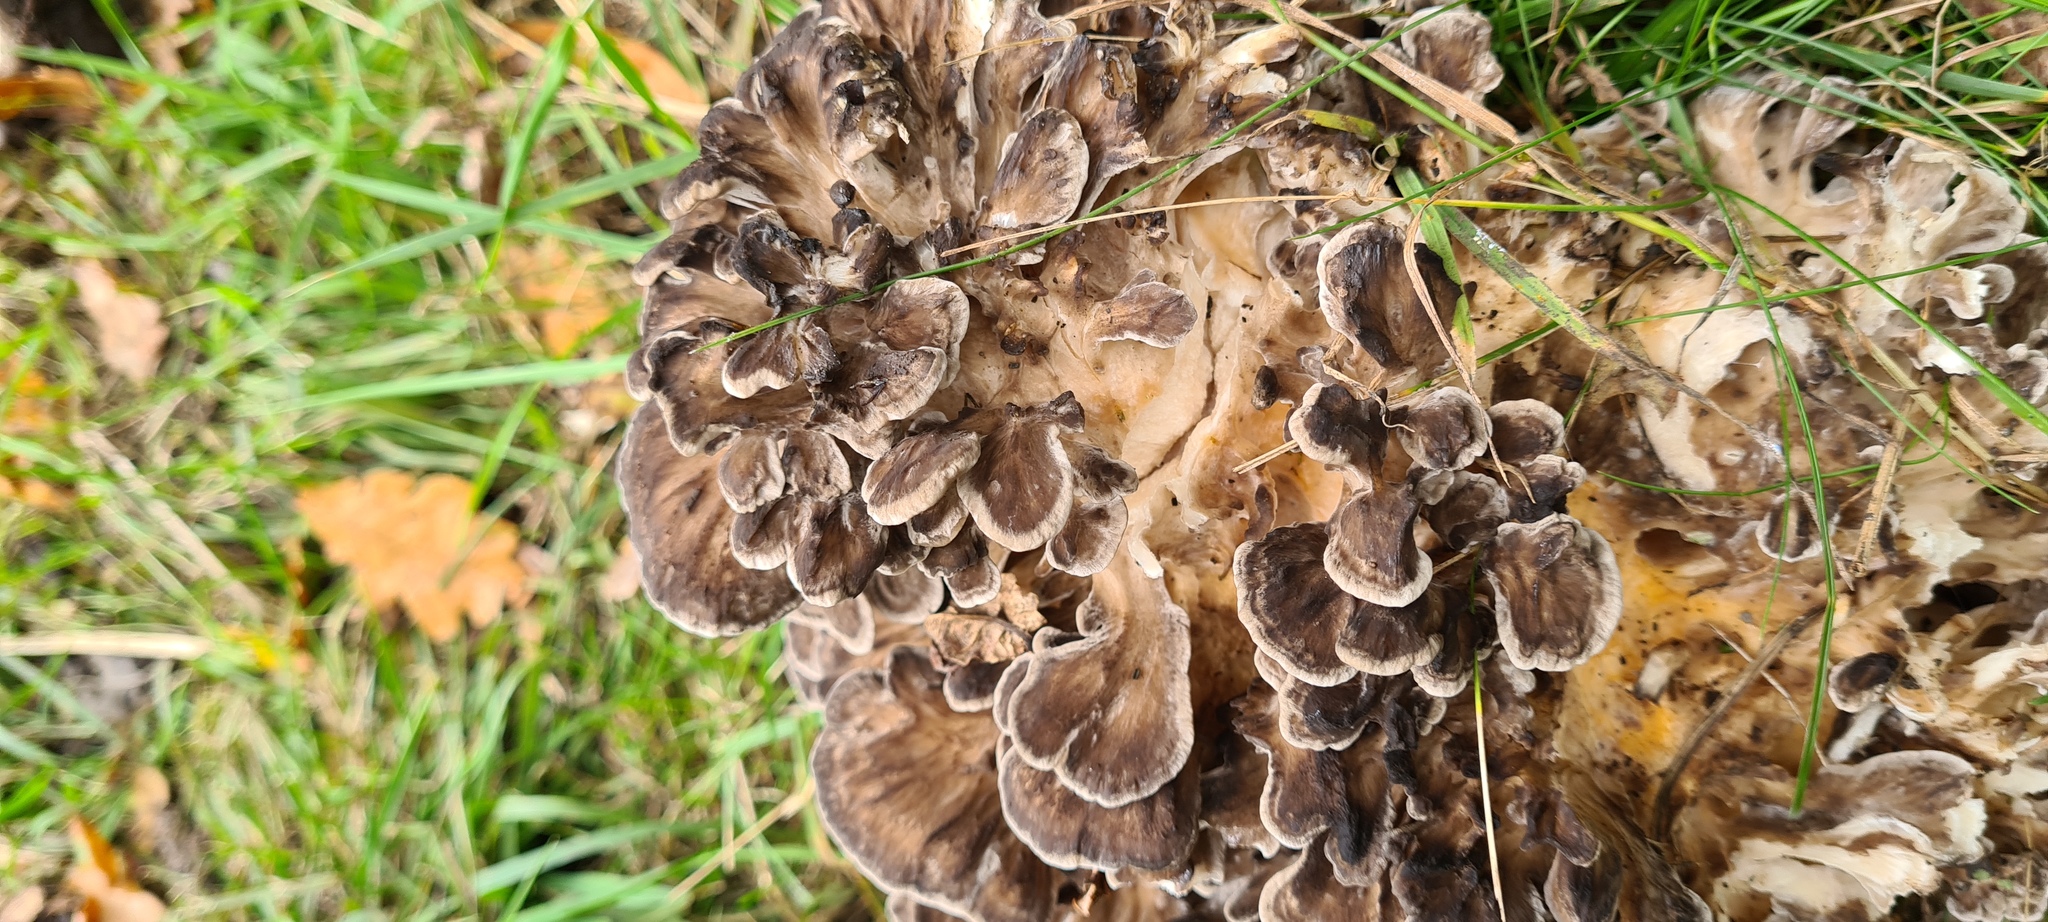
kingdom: Fungi
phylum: Basidiomycota
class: Agaricomycetes
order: Polyporales
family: Grifolaceae
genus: Grifola
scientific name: Grifola frondosa
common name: Hen of the woods
